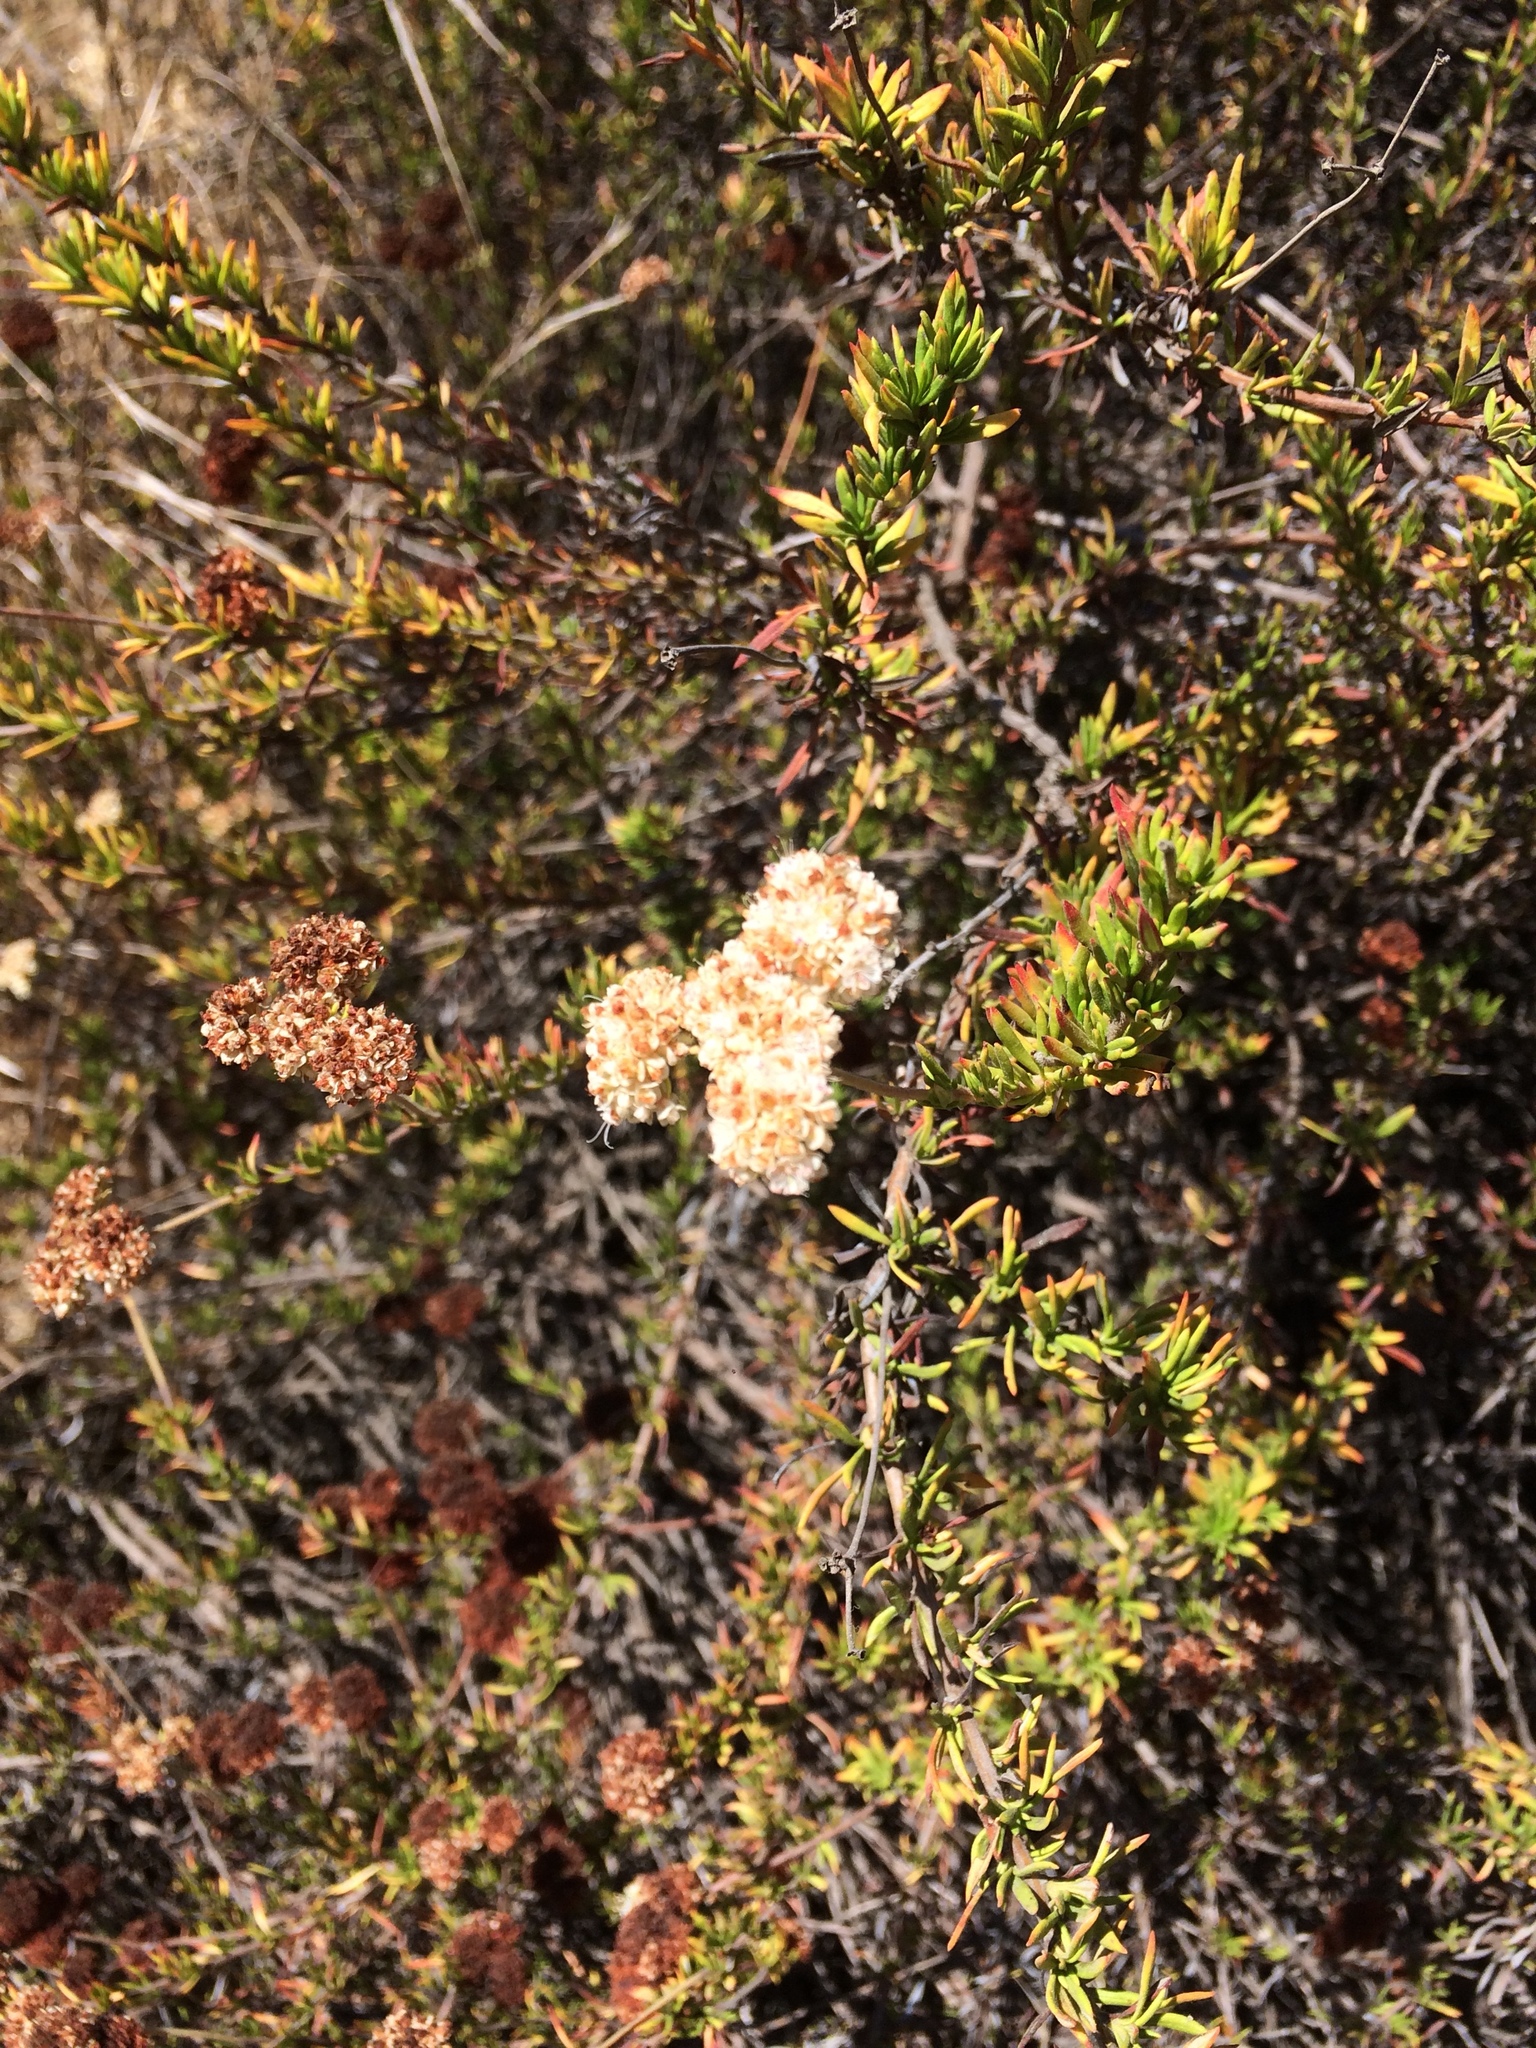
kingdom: Plantae
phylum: Tracheophyta
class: Magnoliopsida
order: Caryophyllales
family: Polygonaceae
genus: Eriogonum
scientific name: Eriogonum fasciculatum
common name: California wild buckwheat
